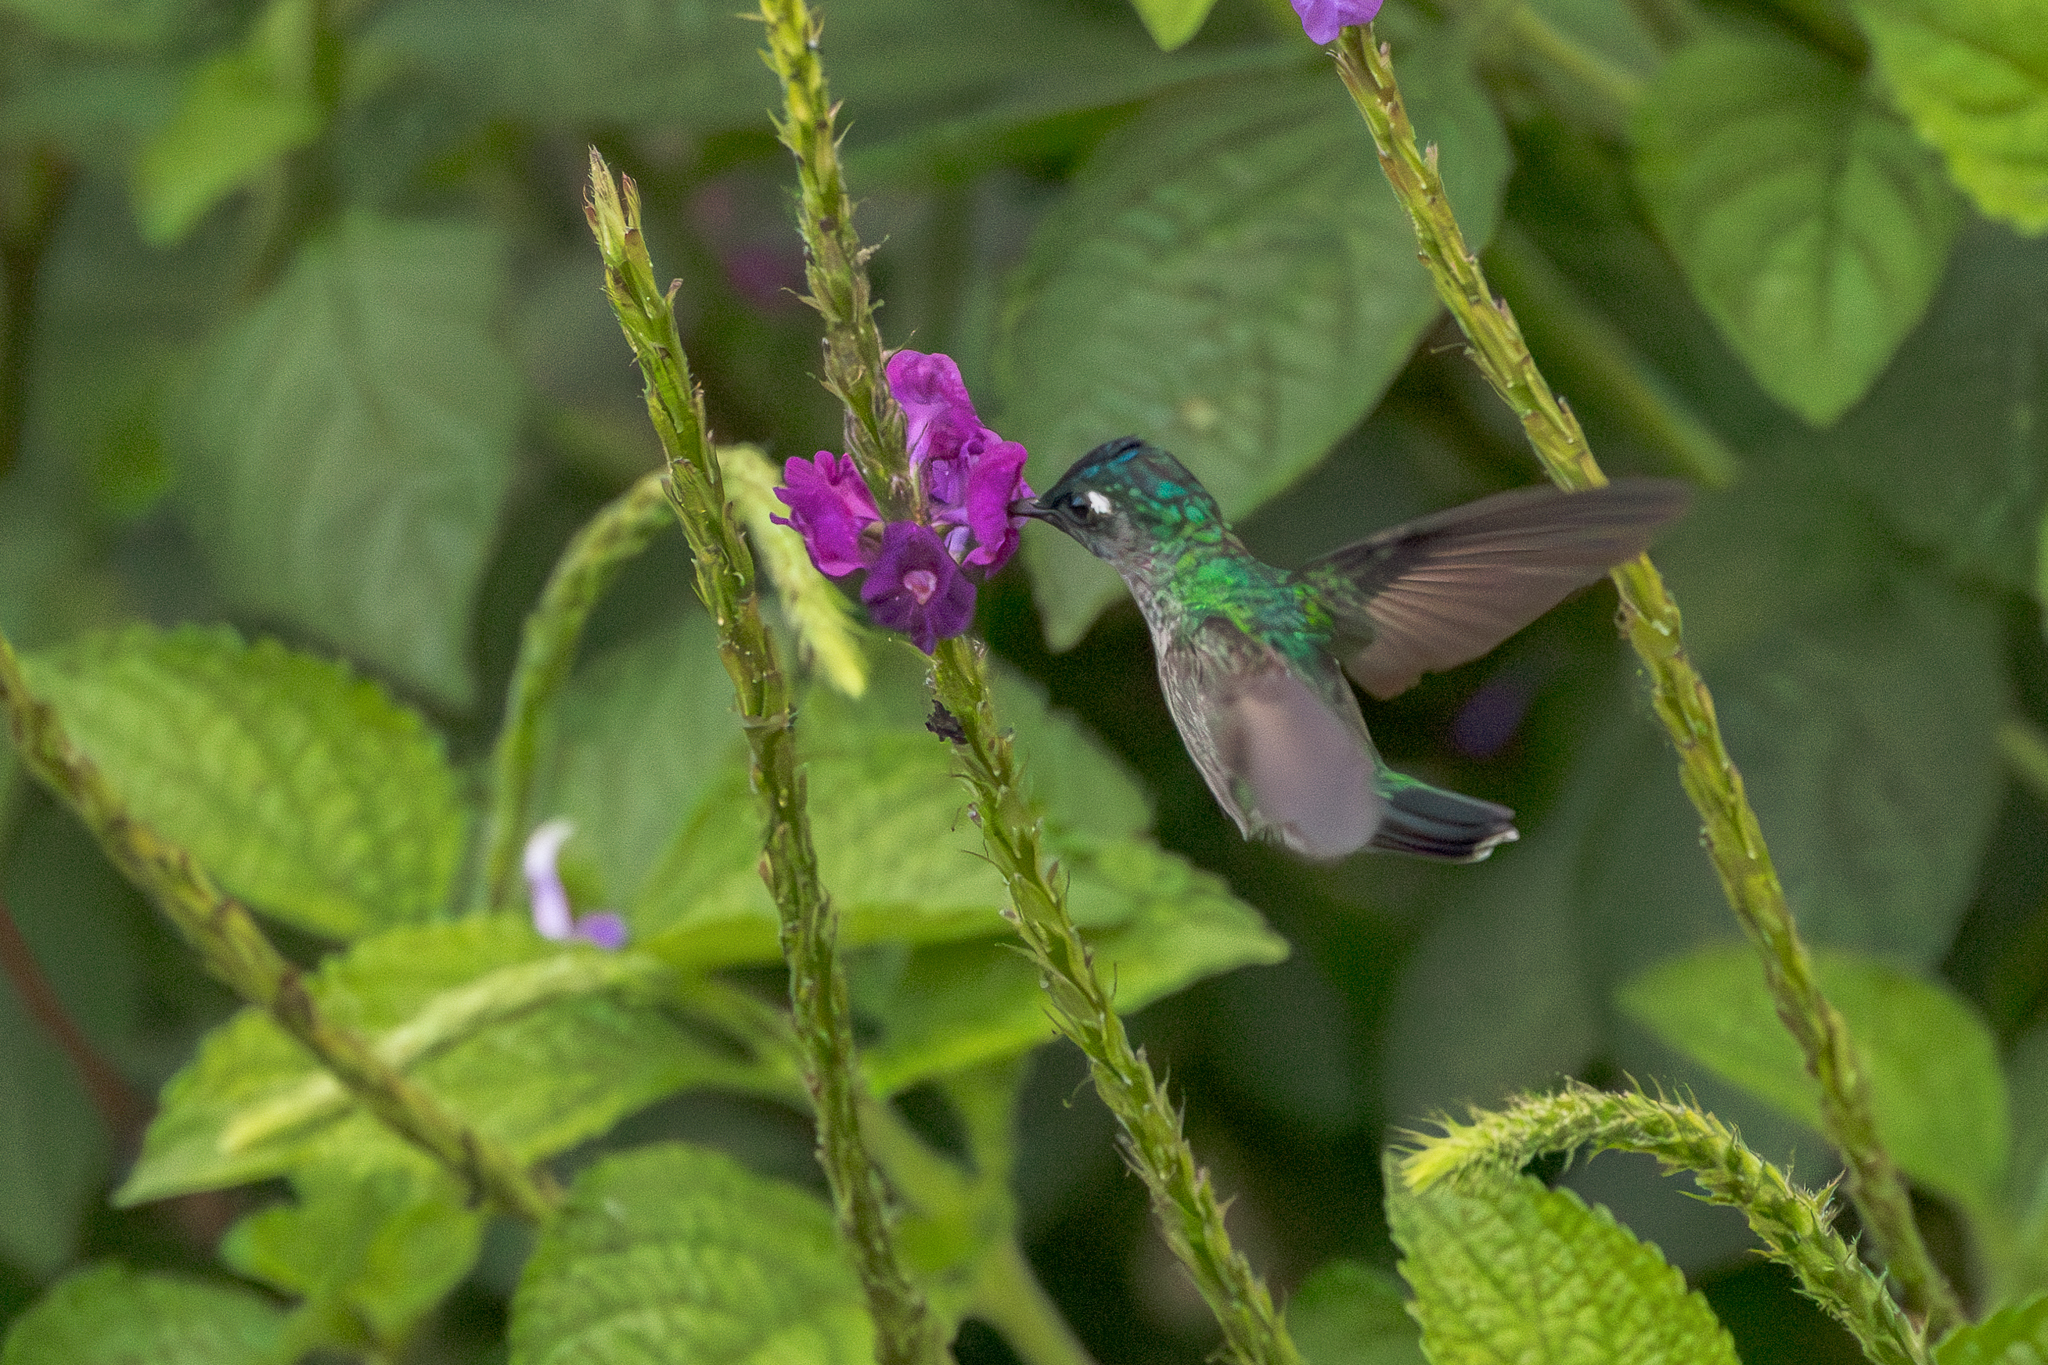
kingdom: Animalia
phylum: Chordata
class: Aves
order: Apodiformes
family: Trochilidae
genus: Klais
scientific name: Klais guimeti
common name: Violet-headed hummingbird
